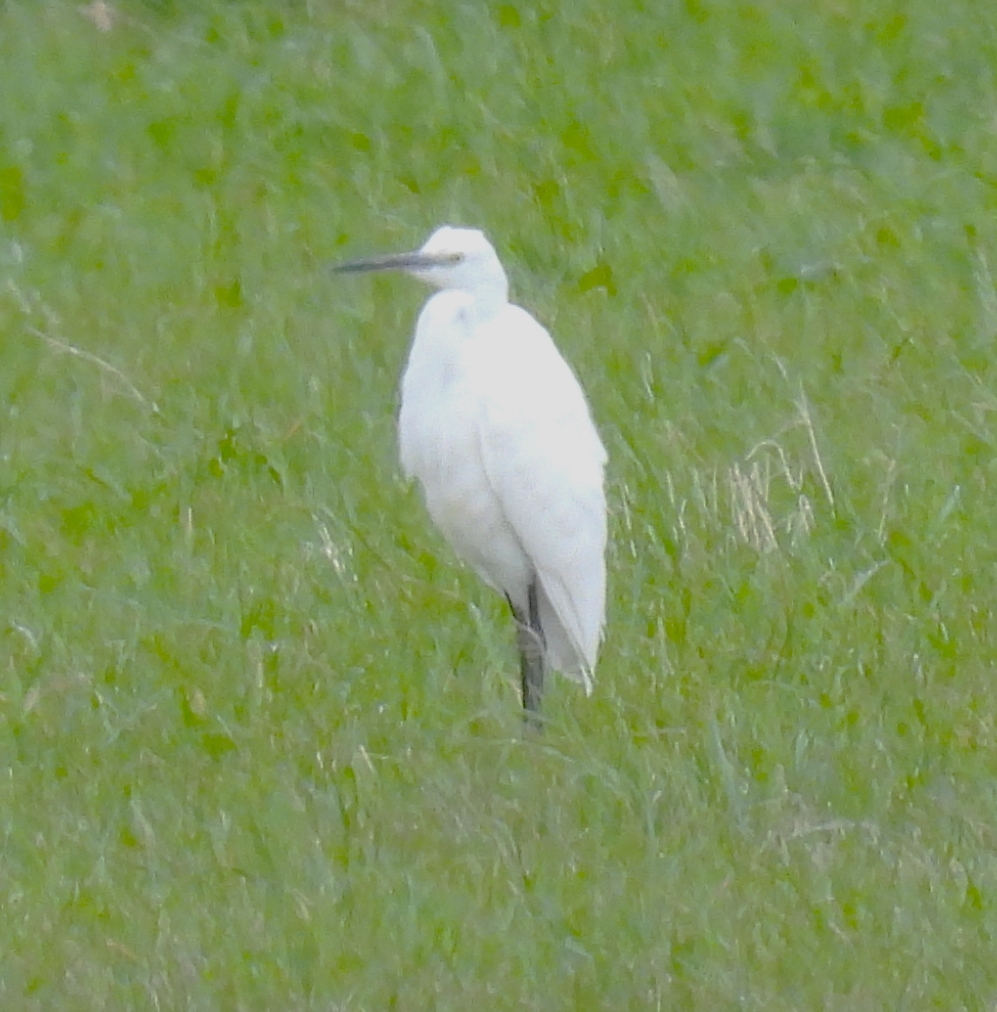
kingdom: Animalia
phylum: Chordata
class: Aves
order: Pelecaniformes
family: Ardeidae
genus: Egretta
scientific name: Egretta garzetta
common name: Little egret
